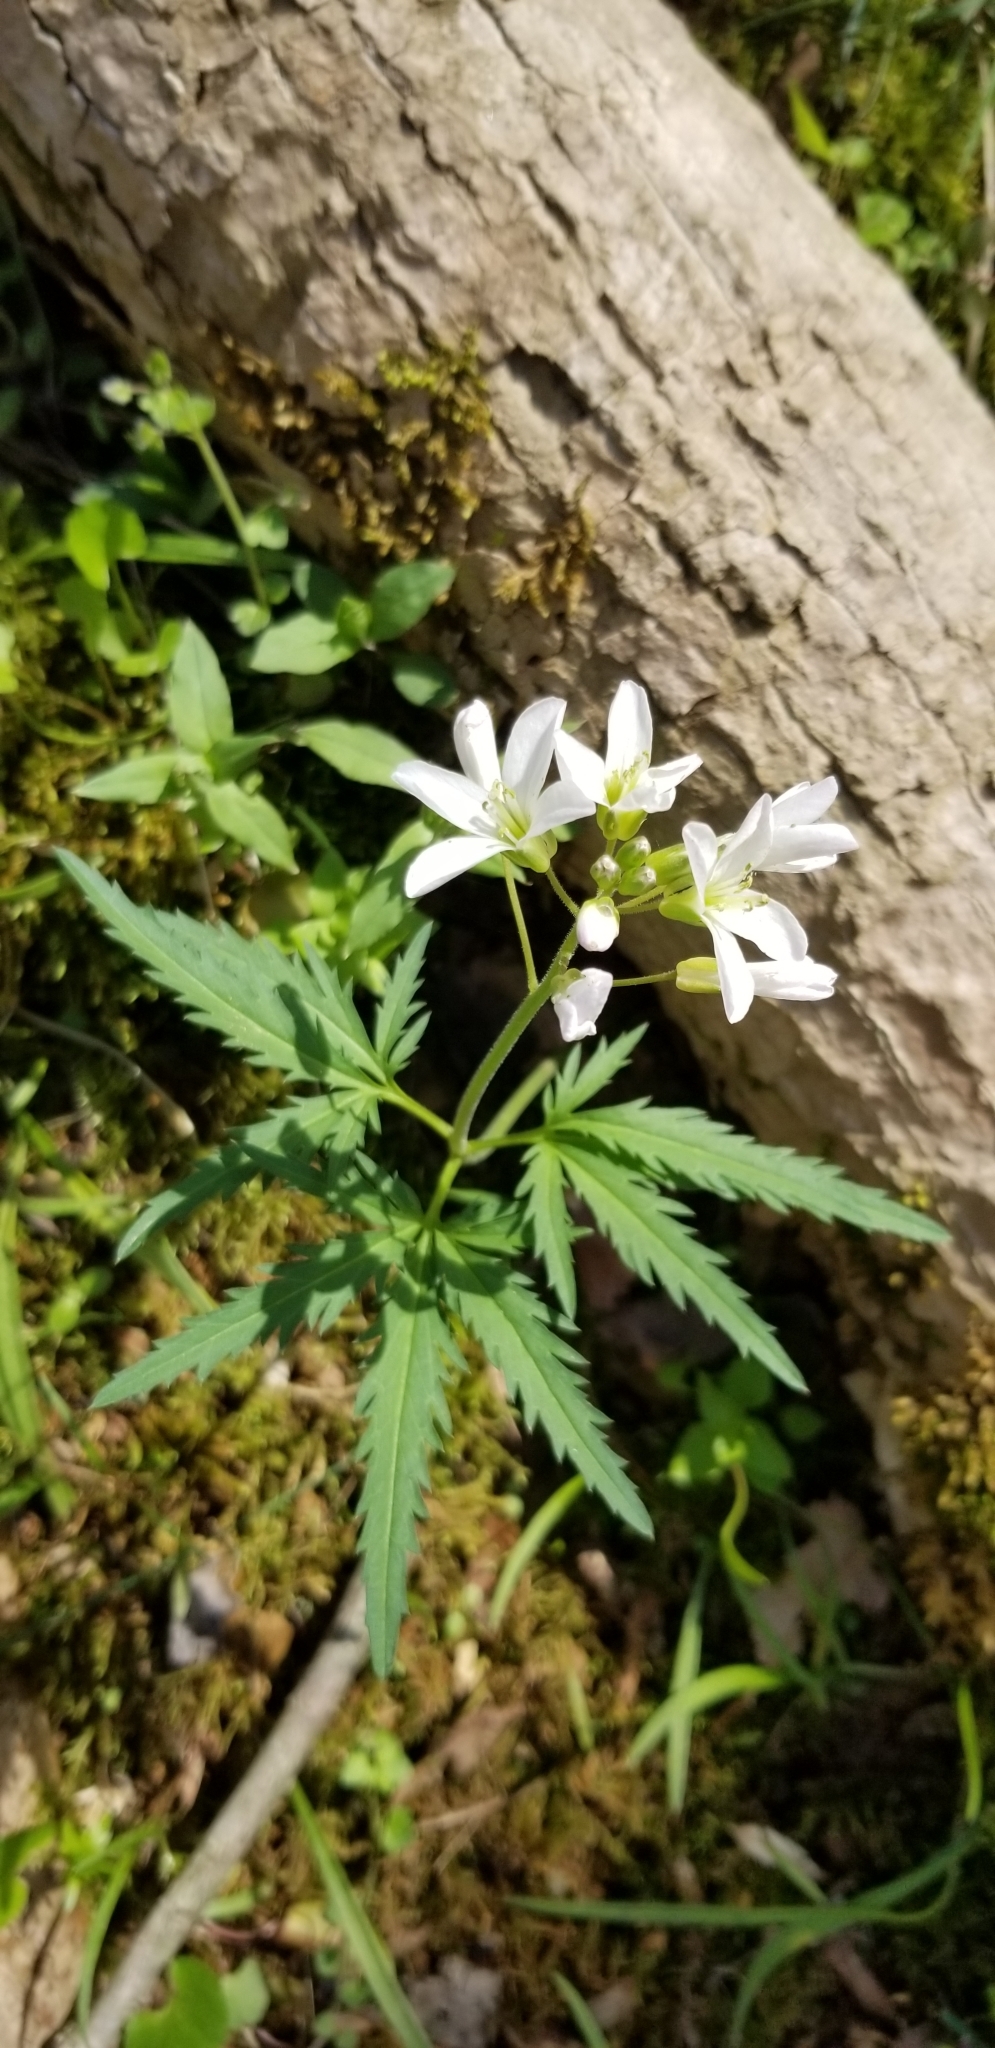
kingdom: Plantae
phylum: Tracheophyta
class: Magnoliopsida
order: Brassicales
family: Brassicaceae
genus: Cardamine
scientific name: Cardamine concatenata
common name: Cut-leaf toothcup
